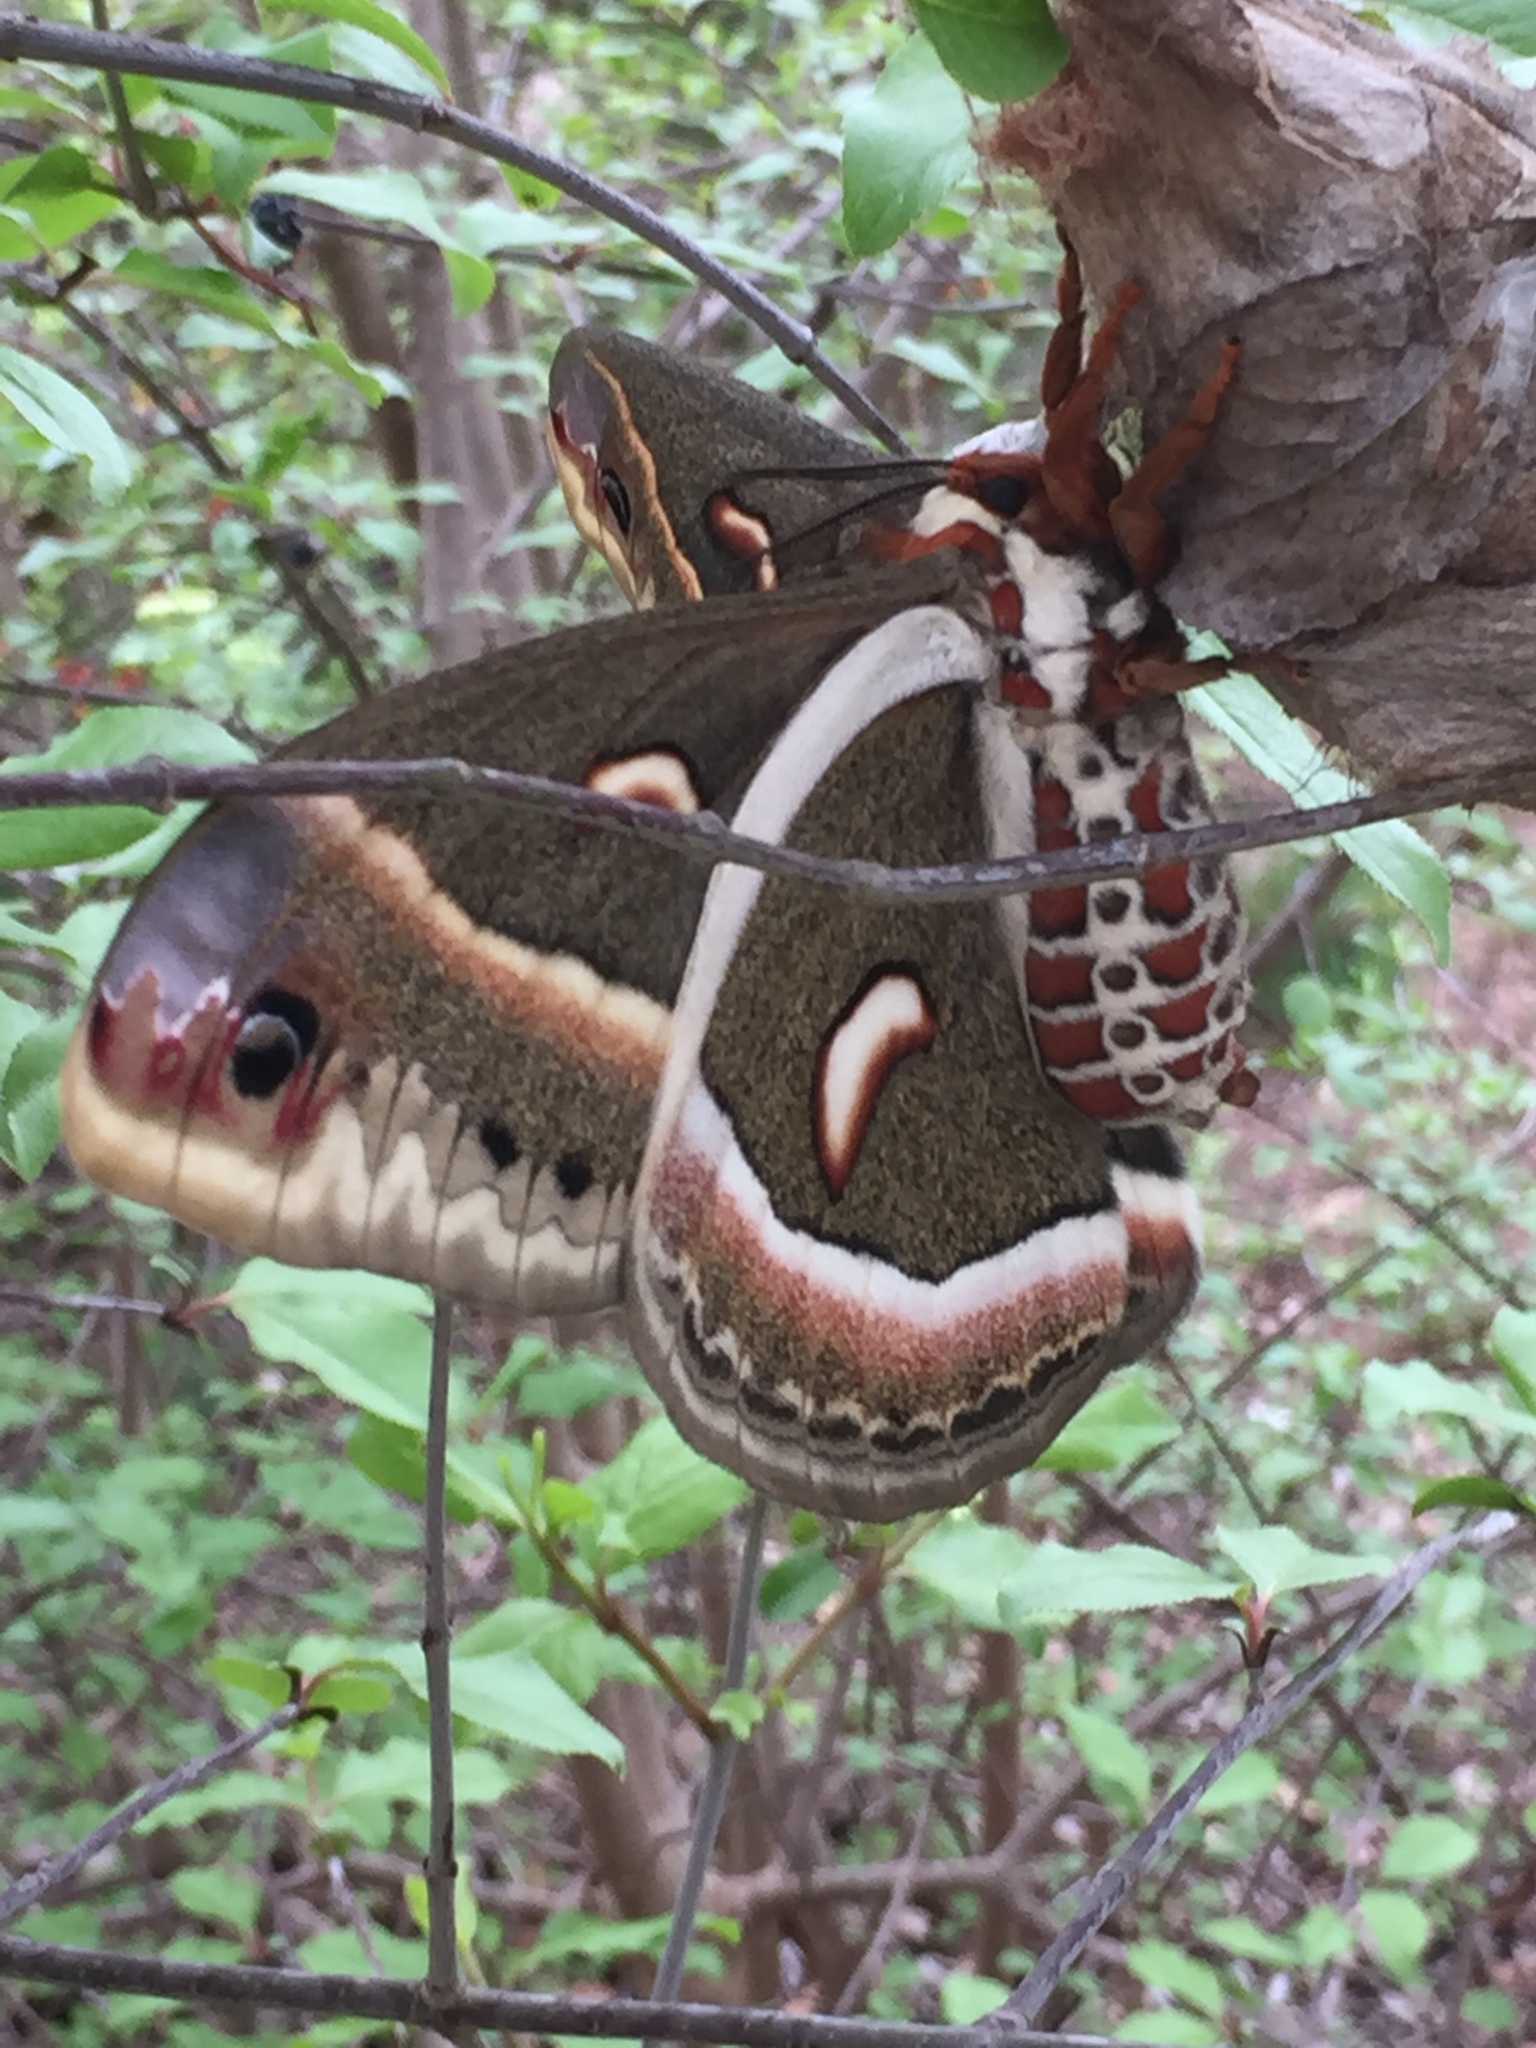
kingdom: Animalia
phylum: Arthropoda
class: Insecta
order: Lepidoptera
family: Saturniidae
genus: Hyalophora
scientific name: Hyalophora cecropia
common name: Cecropia silkmoth
